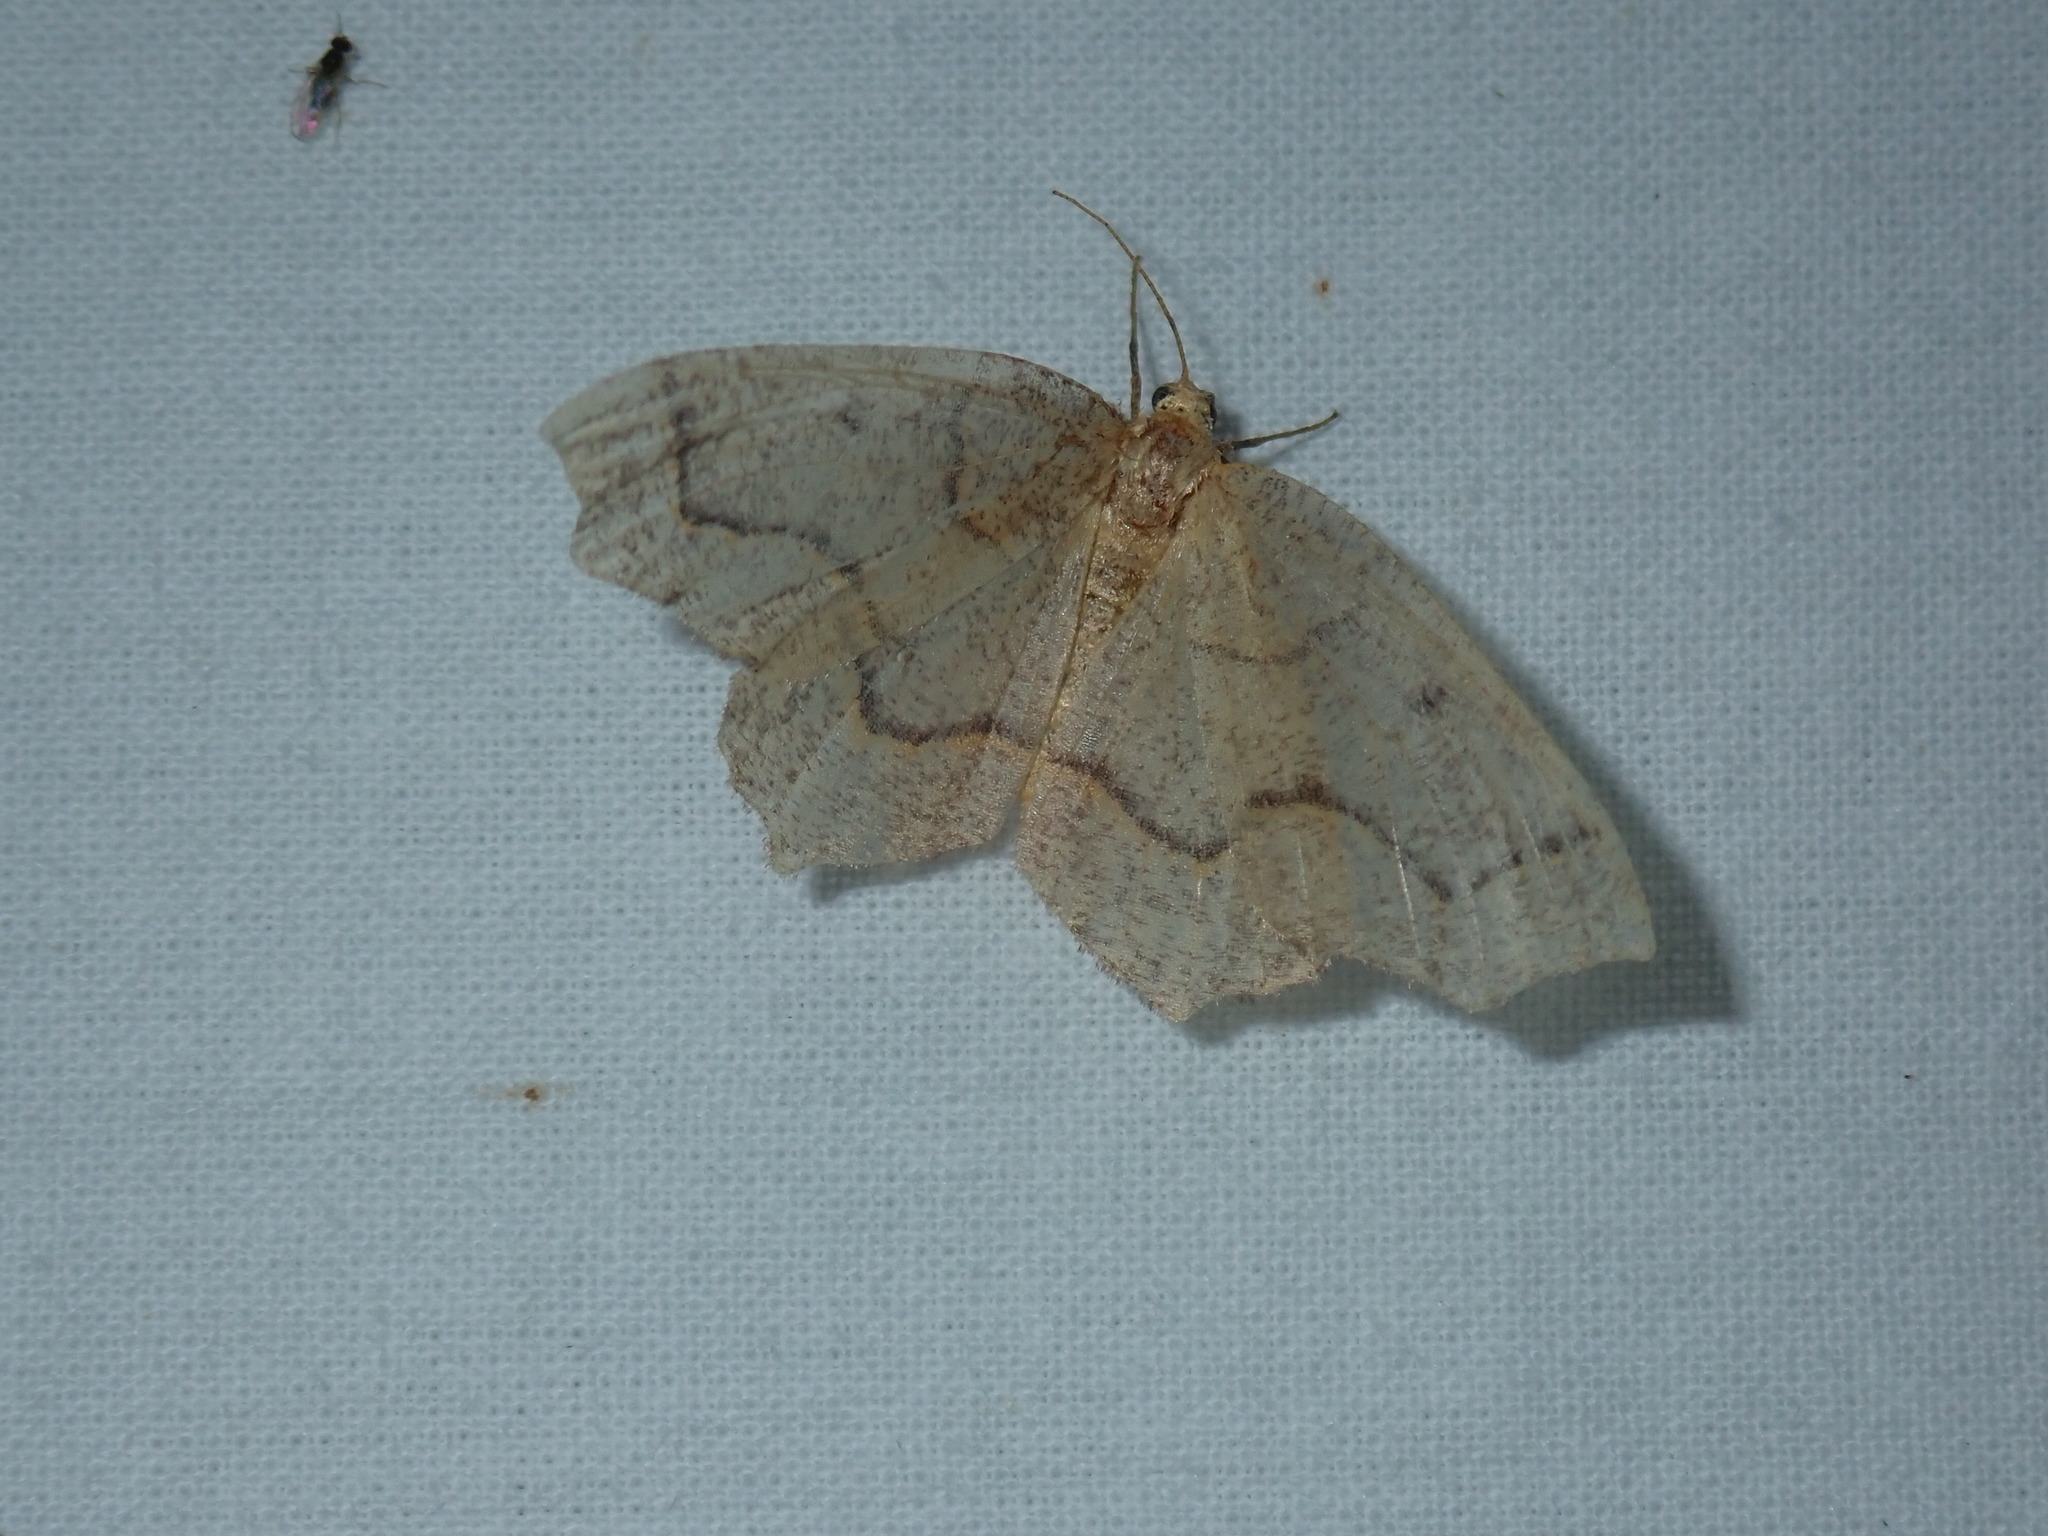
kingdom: Animalia
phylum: Arthropoda
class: Insecta
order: Lepidoptera
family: Geometridae
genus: Lambdina
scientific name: Lambdina fiscellaria
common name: Hemlock looper
